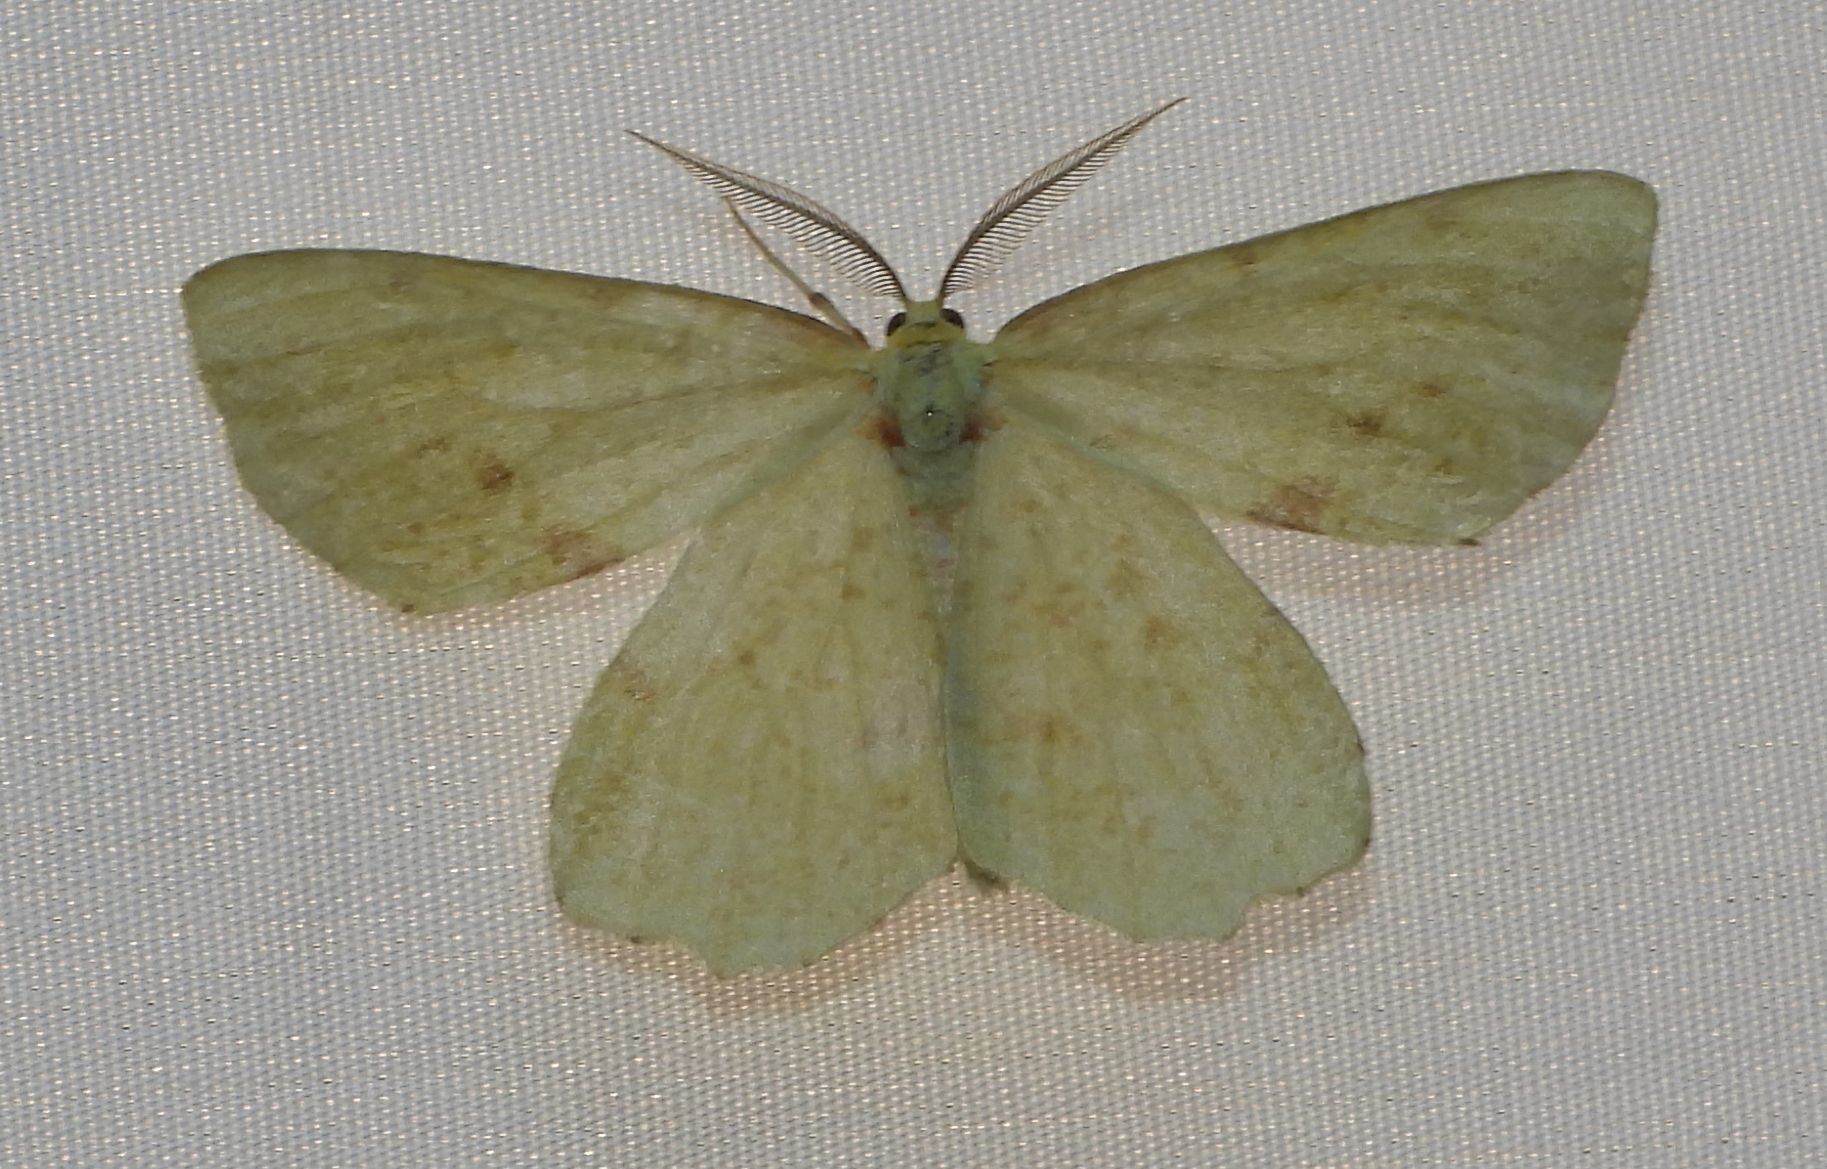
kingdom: Animalia
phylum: Arthropoda
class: Insecta
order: Lepidoptera
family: Geometridae
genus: Xanthotype
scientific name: Xanthotype
